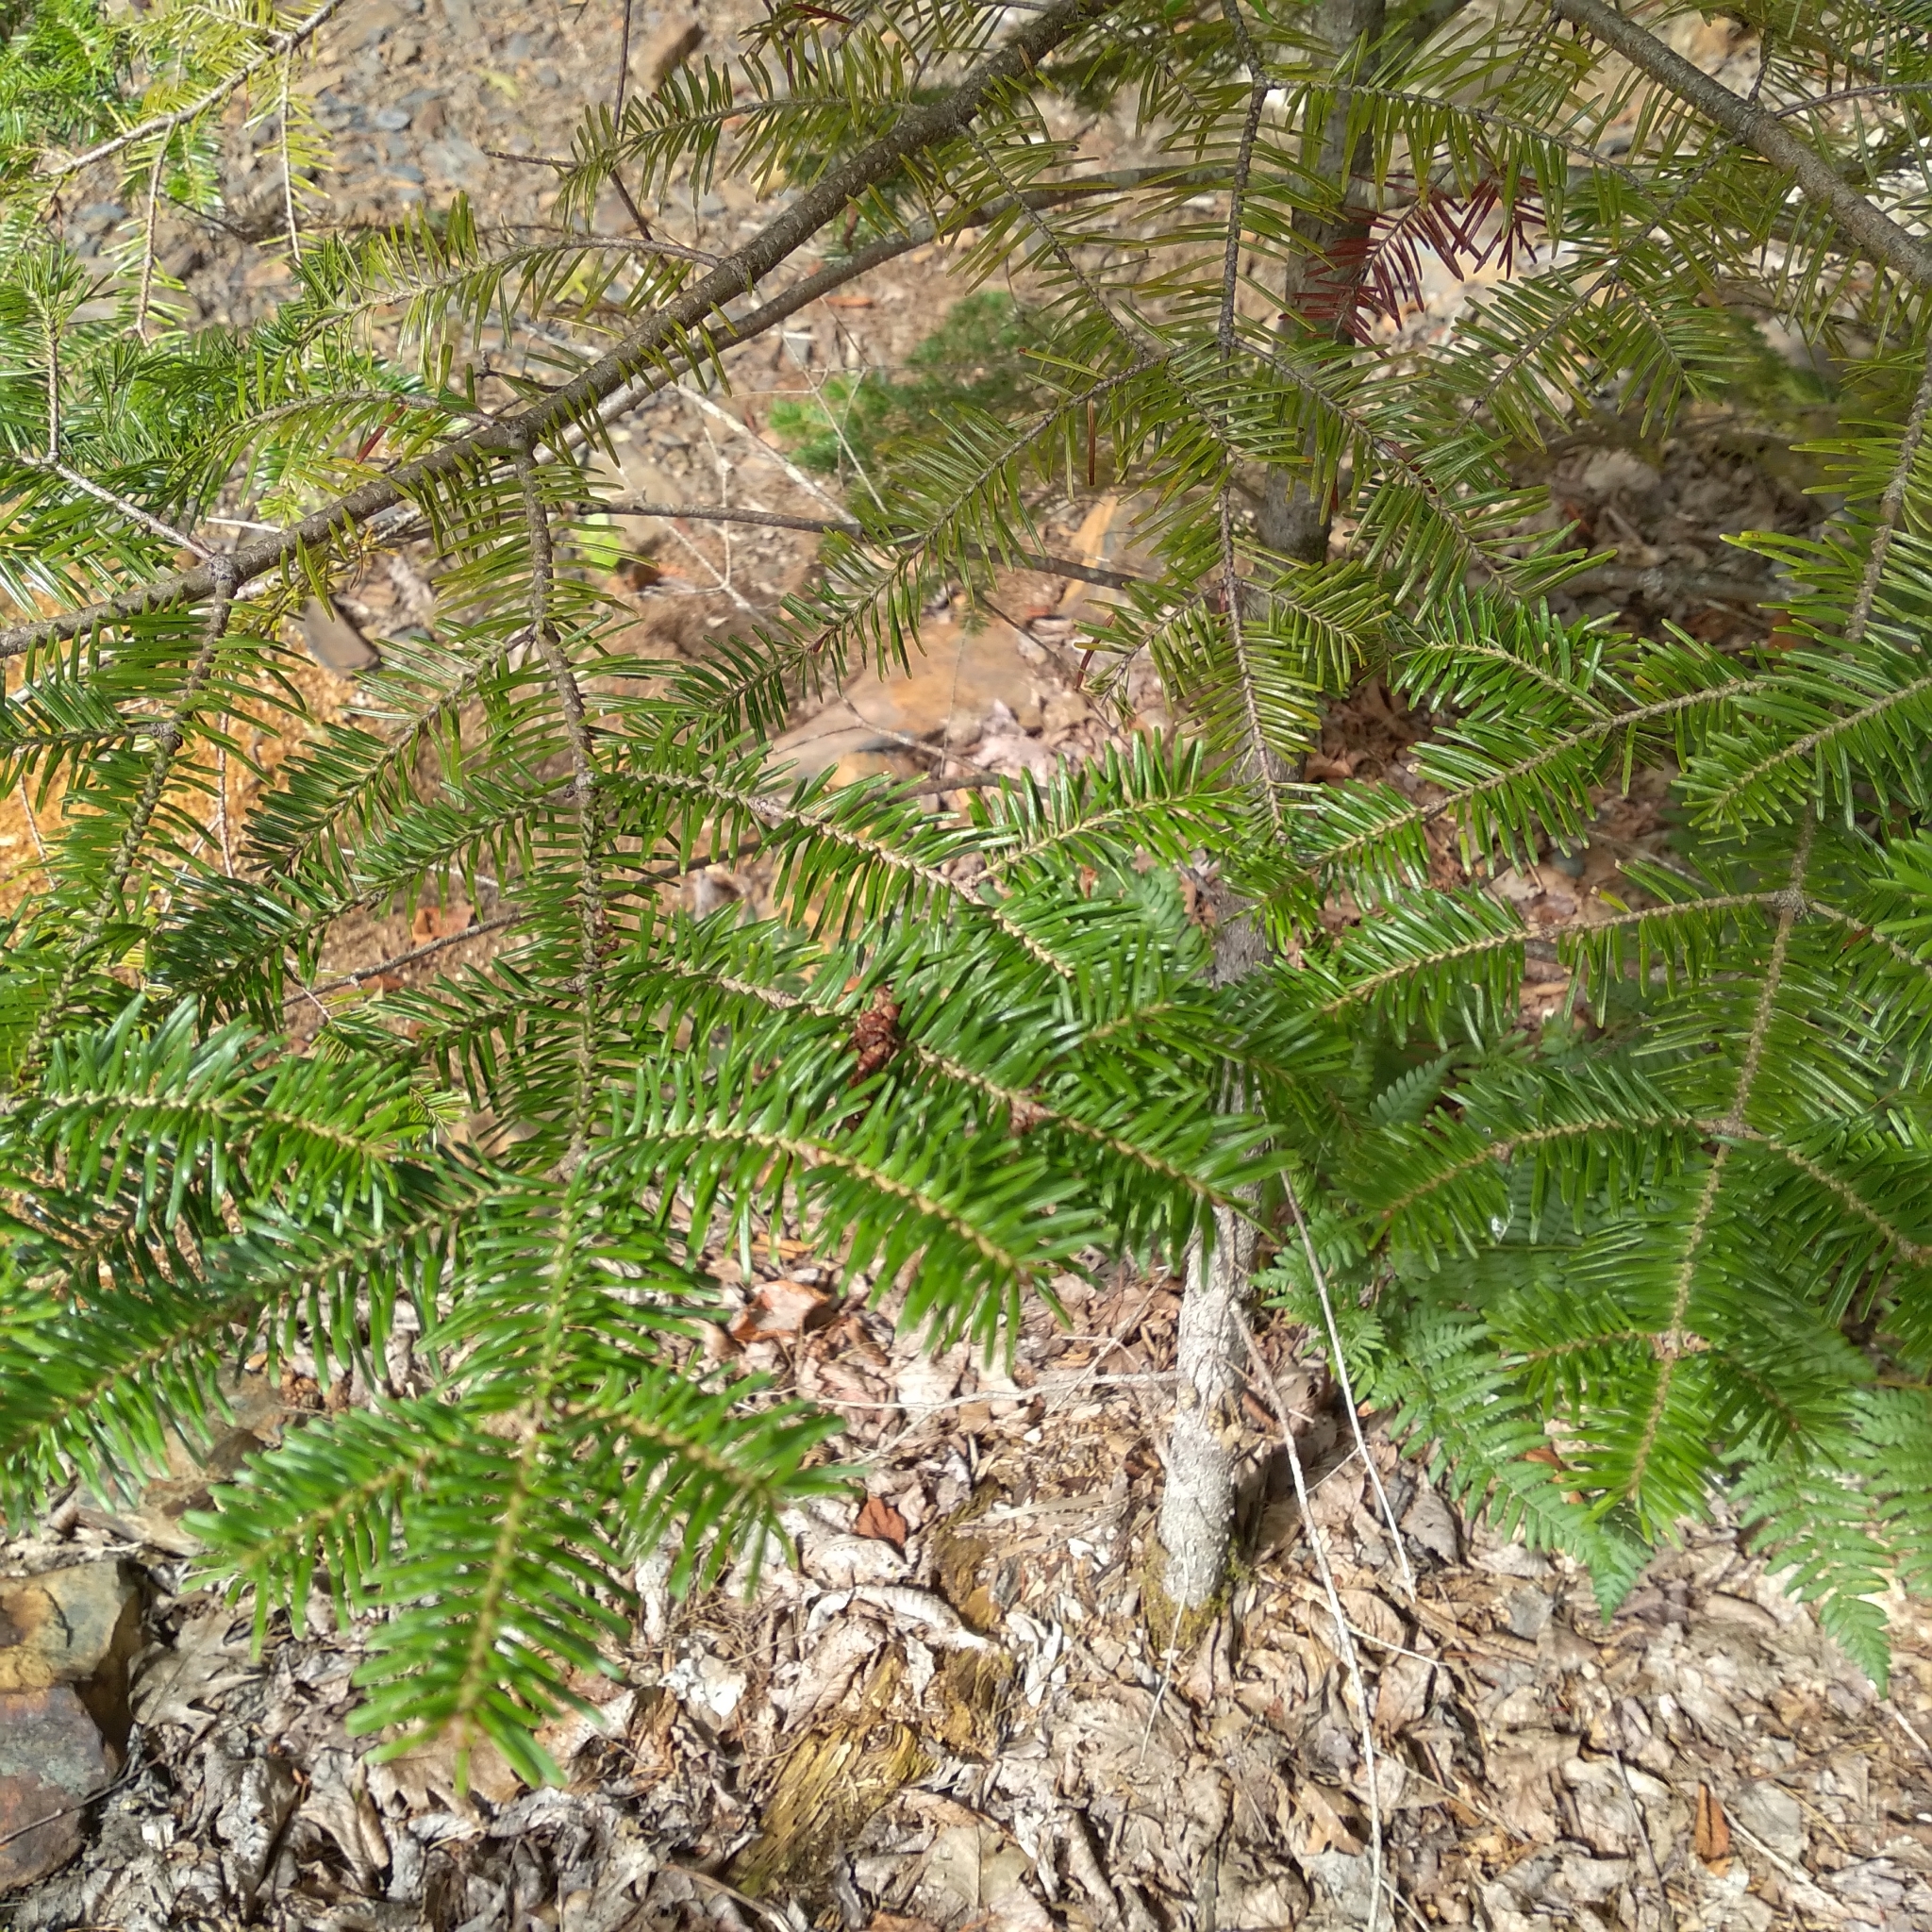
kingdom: Plantae
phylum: Tracheophyta
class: Pinopsida
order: Pinales
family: Pinaceae
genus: Abies
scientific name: Abies balsamea
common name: Balsam fir
